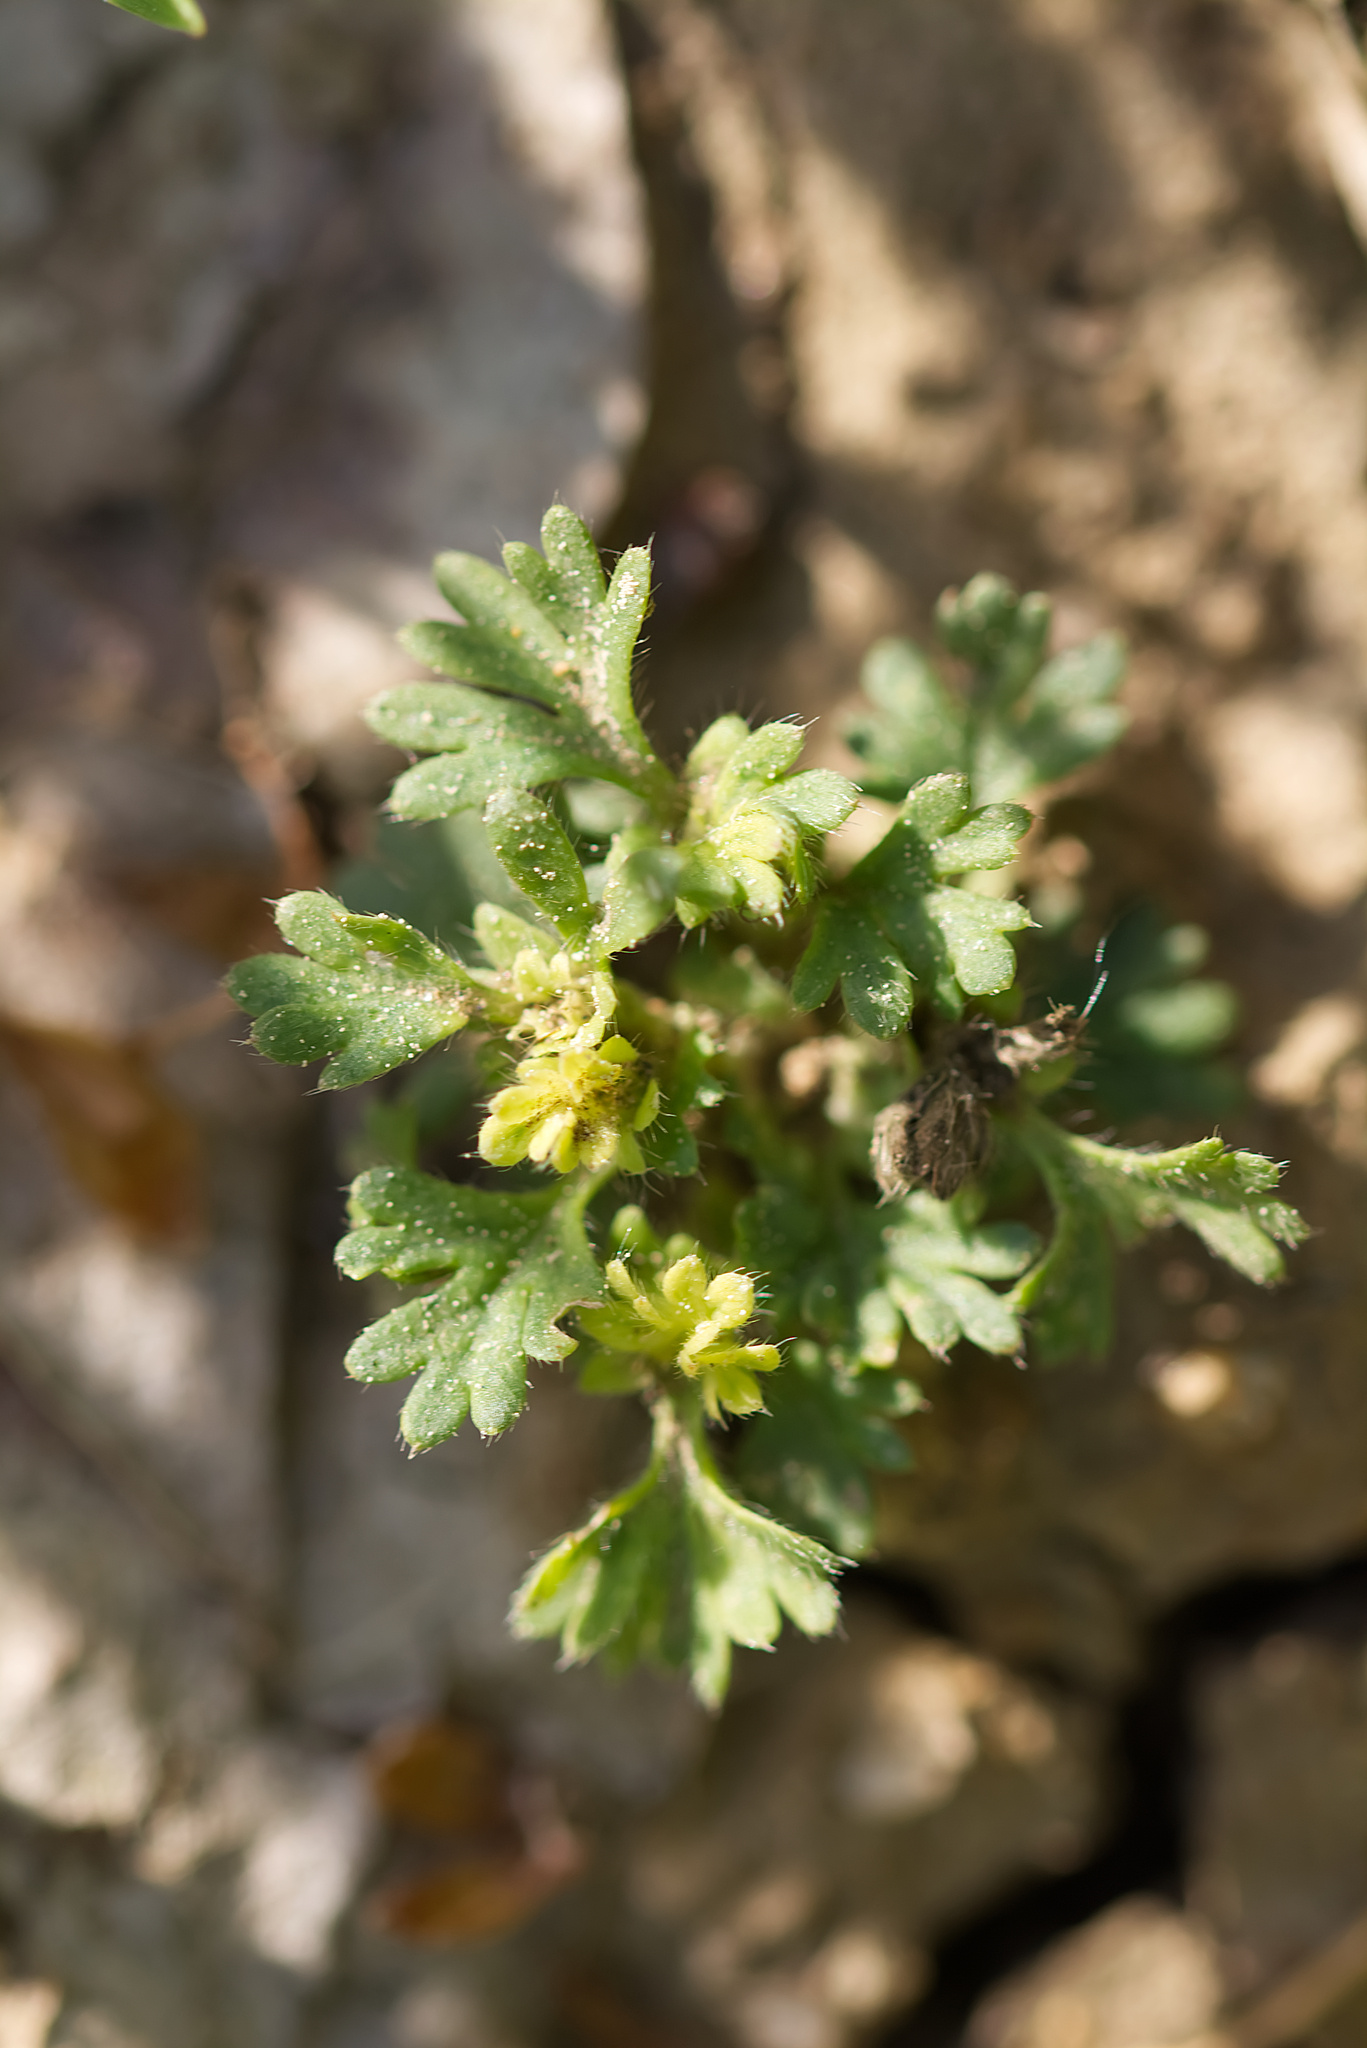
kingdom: Plantae
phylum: Tracheophyta
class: Magnoliopsida
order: Rosales
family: Rosaceae
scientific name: Rosaceae
